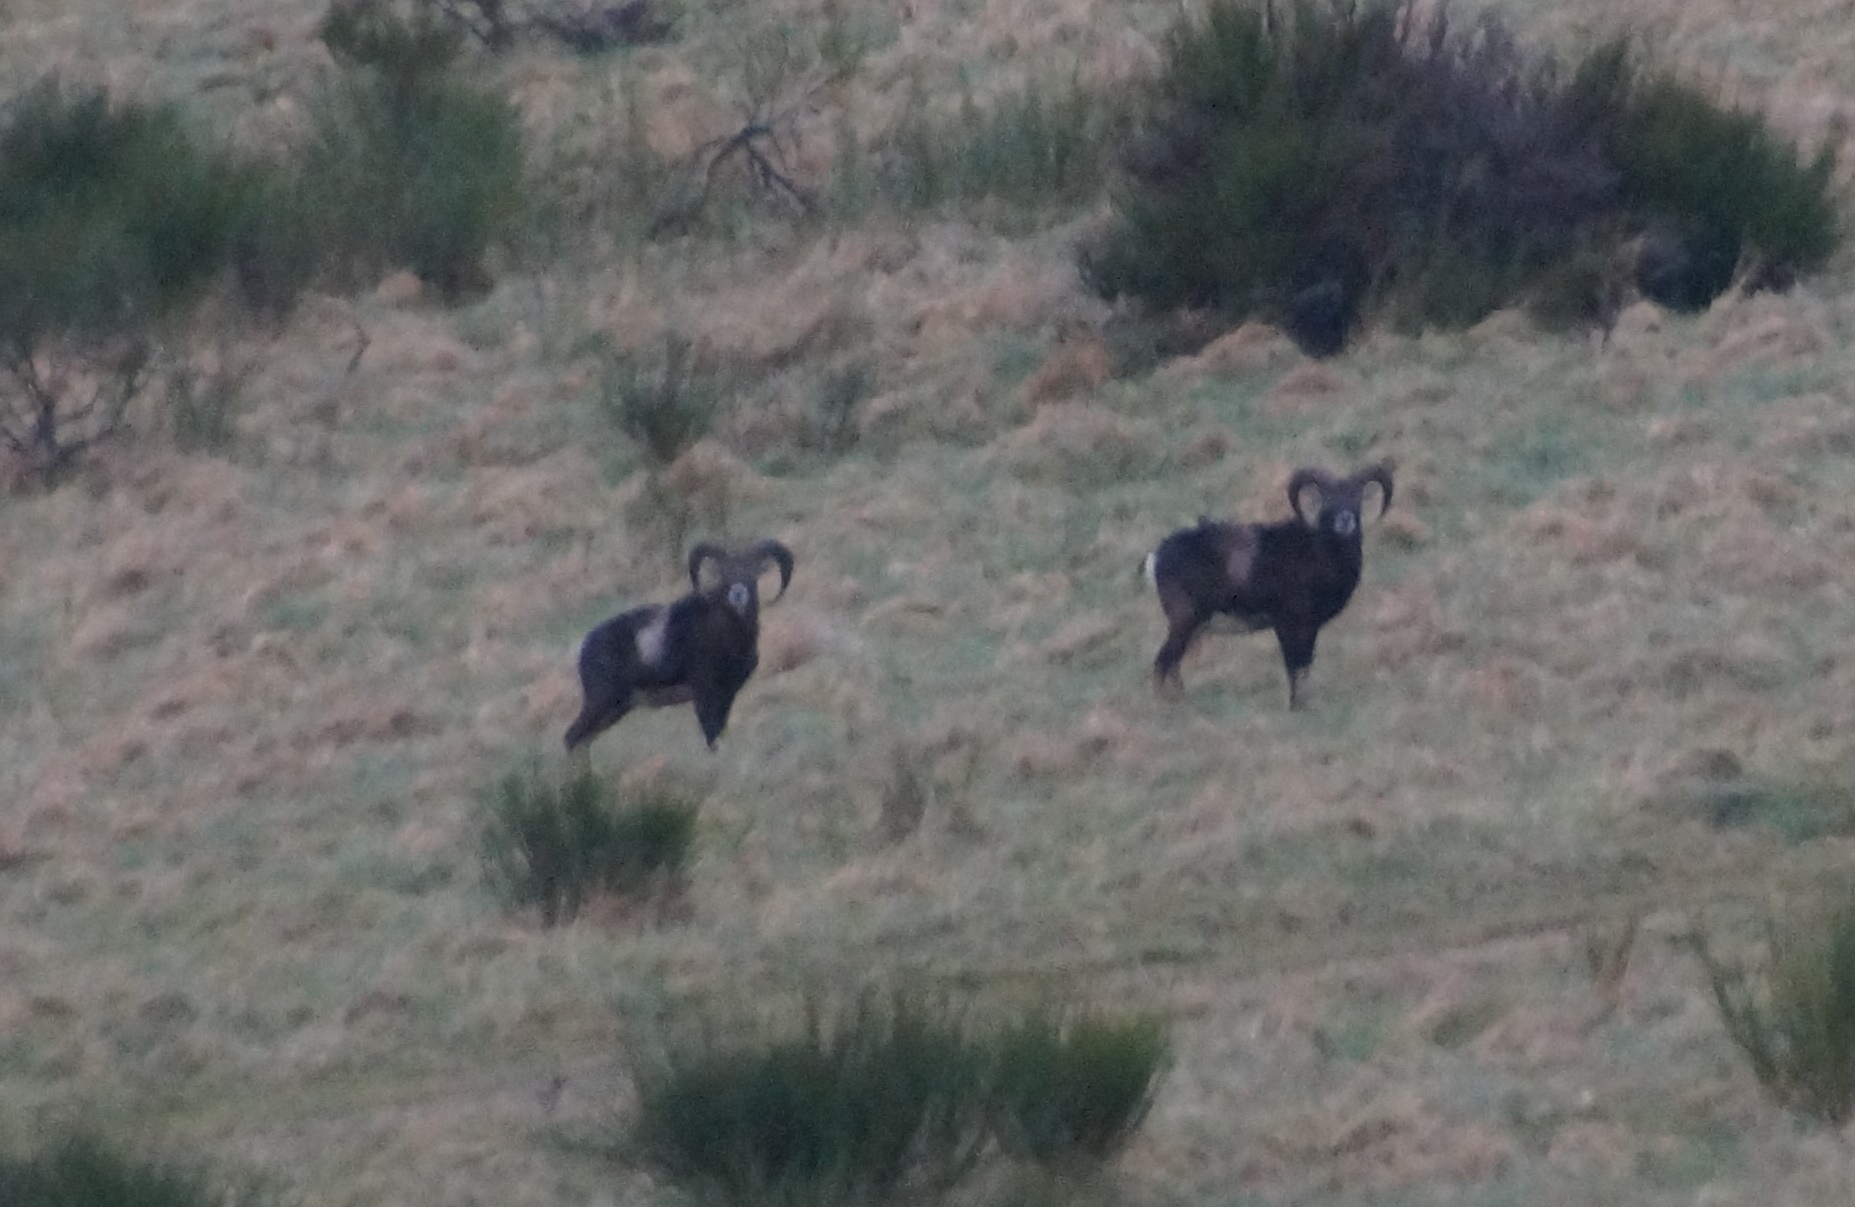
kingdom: Animalia
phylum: Chordata
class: Mammalia
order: Artiodactyla
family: Bovidae
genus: Ovis
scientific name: Ovis aries
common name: Domestic sheep
